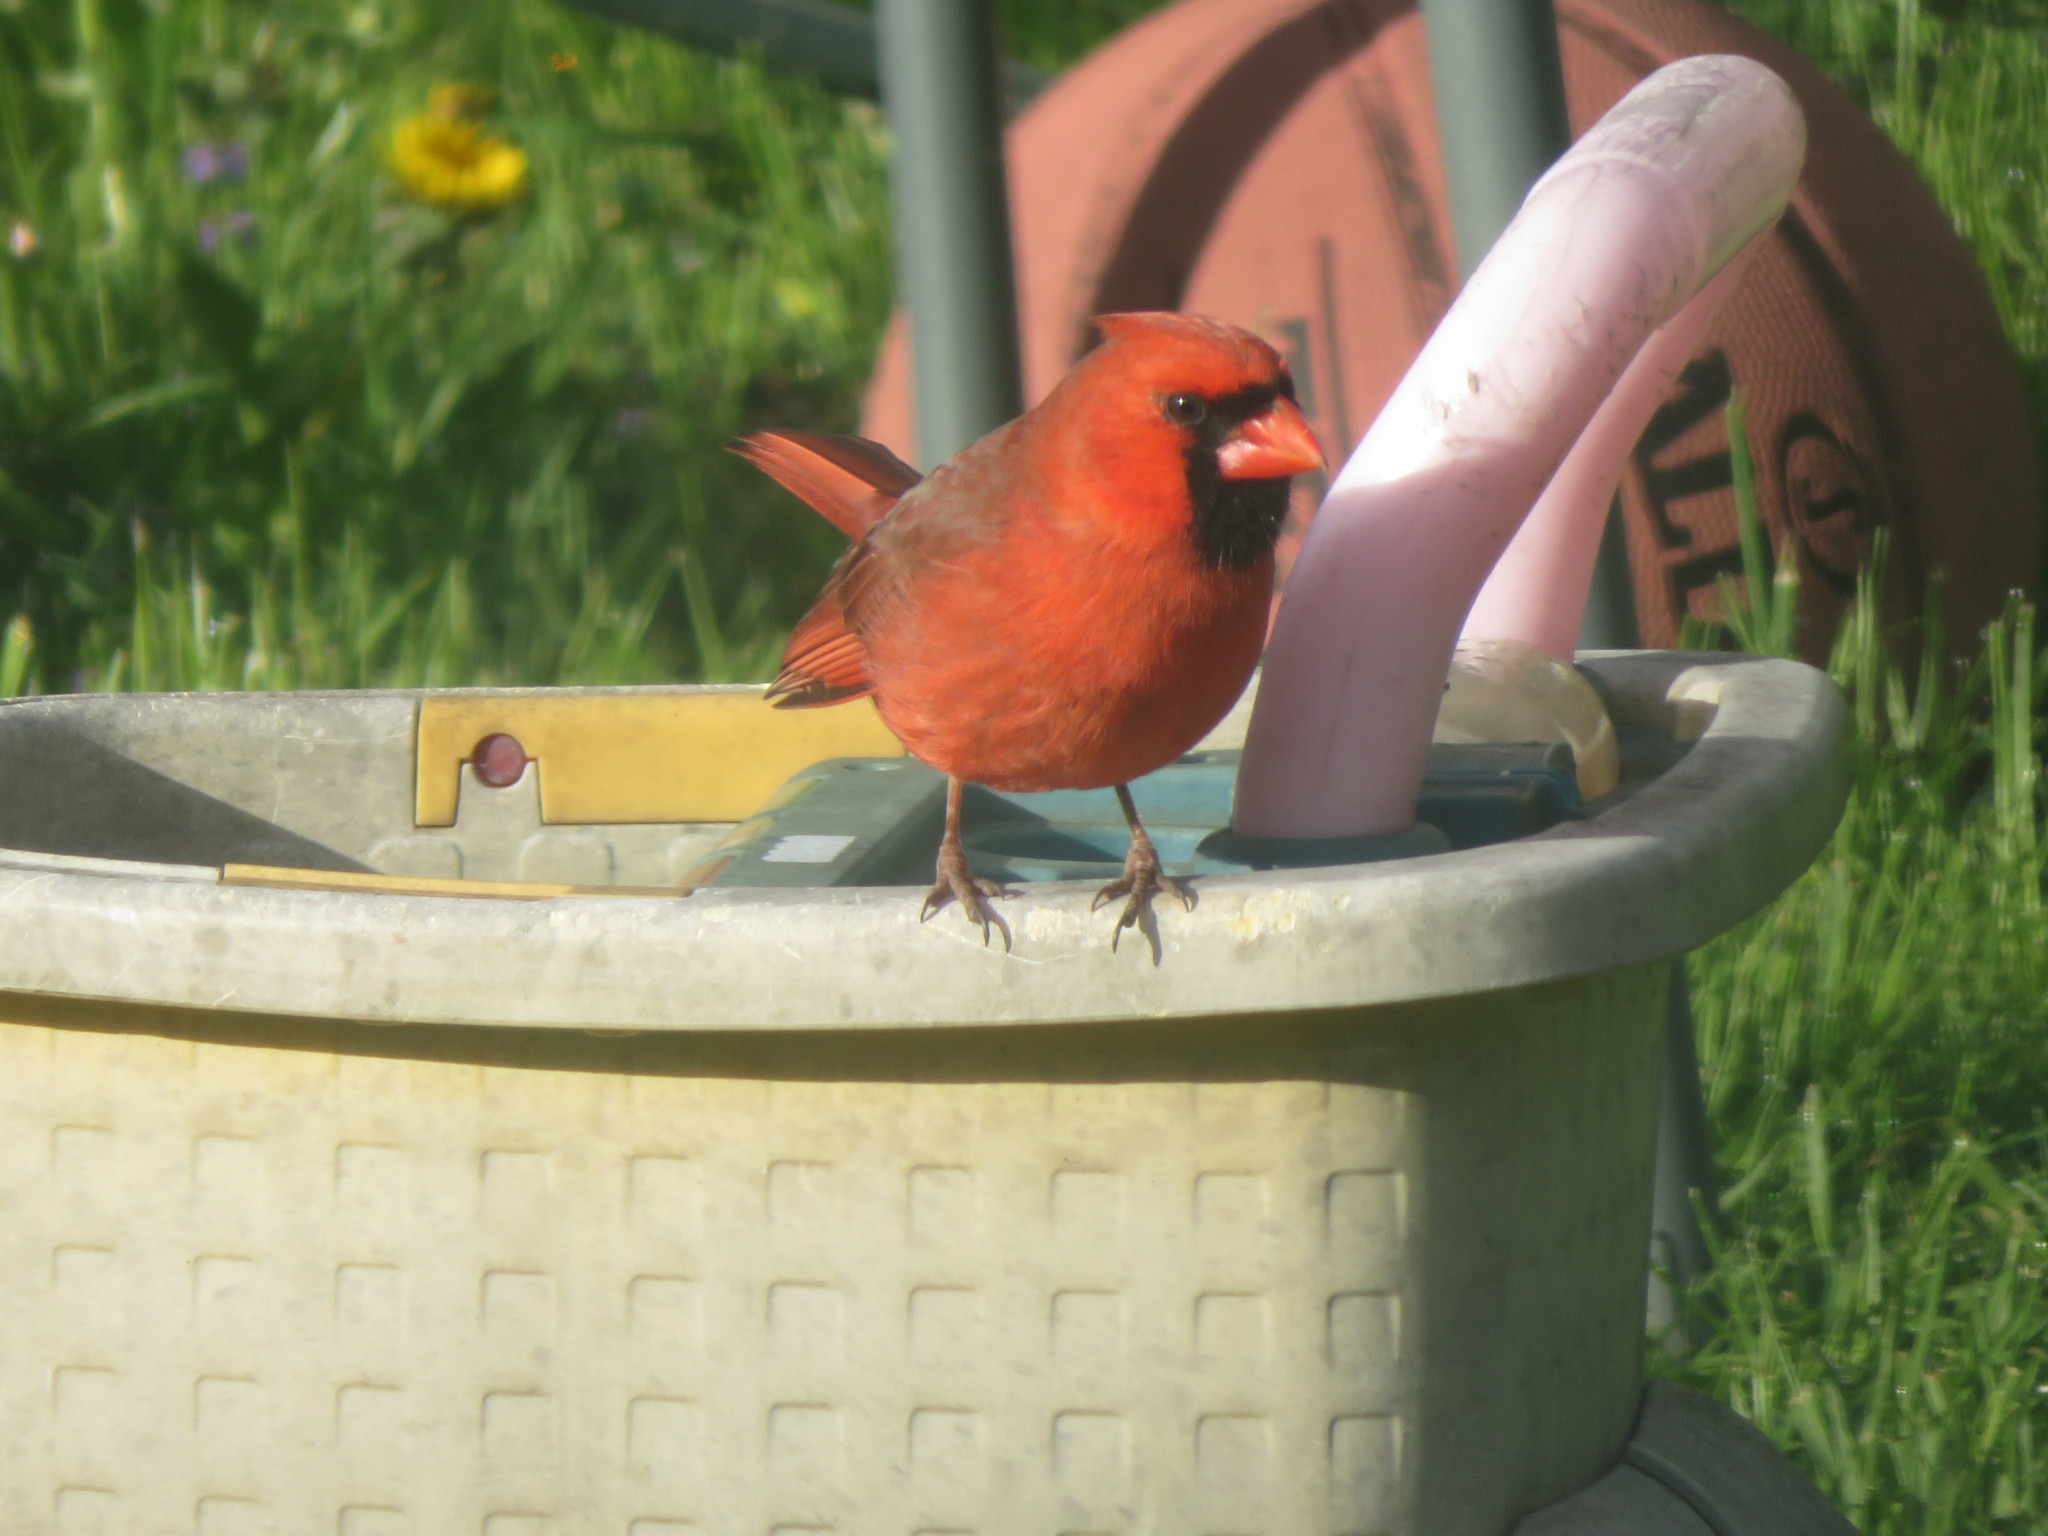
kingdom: Animalia
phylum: Chordata
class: Aves
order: Passeriformes
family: Cardinalidae
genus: Cardinalis
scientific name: Cardinalis cardinalis
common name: Northern cardinal
